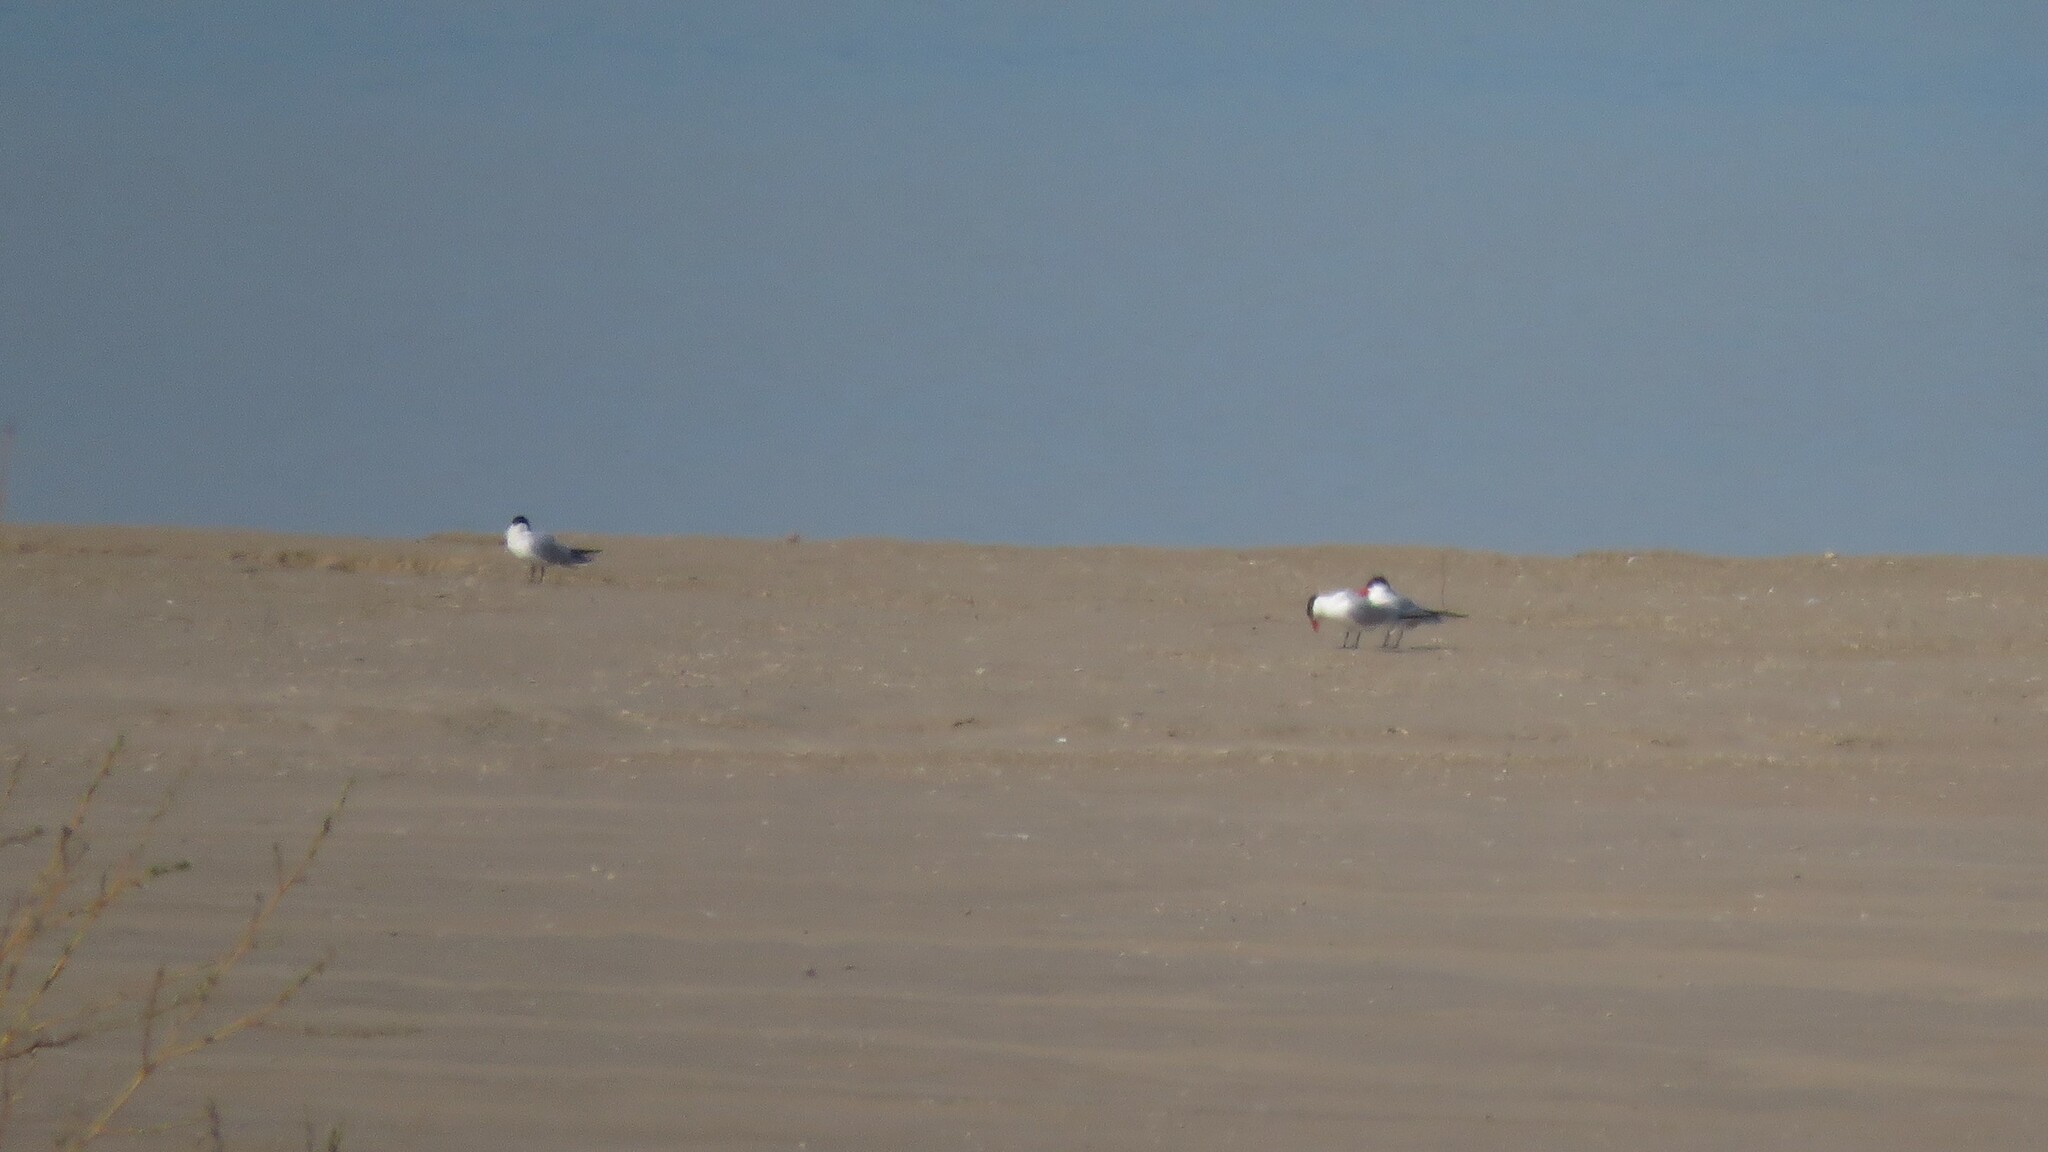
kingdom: Animalia
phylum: Chordata
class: Aves
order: Charadriiformes
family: Laridae
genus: Hydroprogne
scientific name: Hydroprogne caspia
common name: Caspian tern
